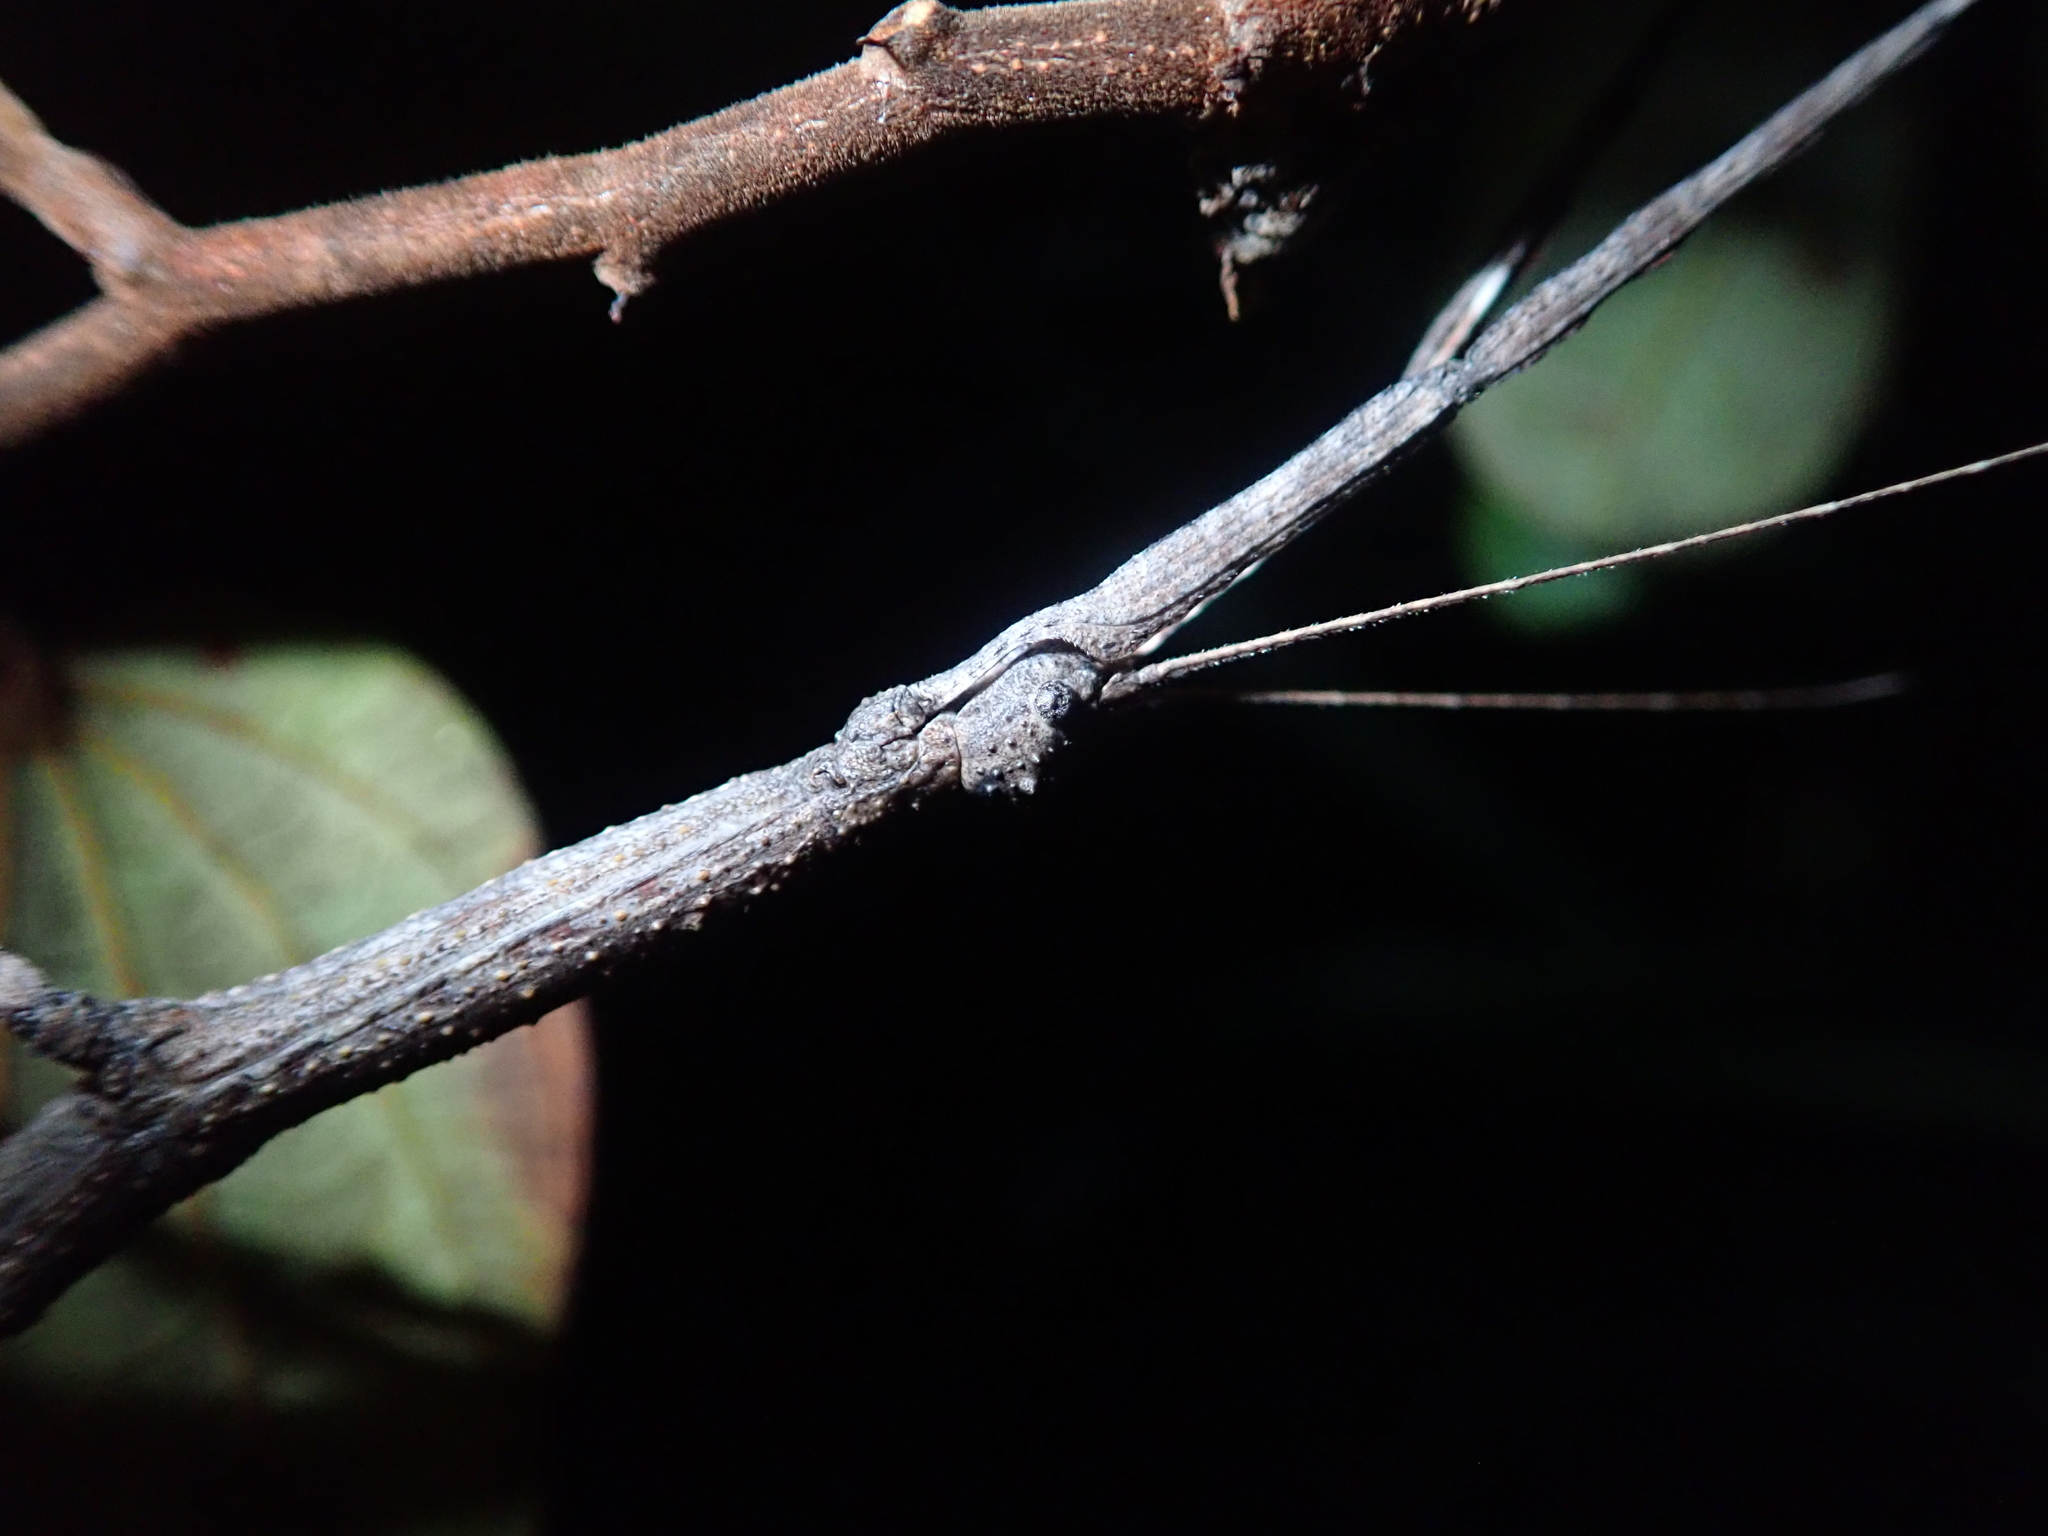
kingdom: Animalia
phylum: Arthropoda
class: Insecta
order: Phasmida
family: Phasmatidae
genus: Cladomorphus
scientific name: Cladomorphus trimariensis
